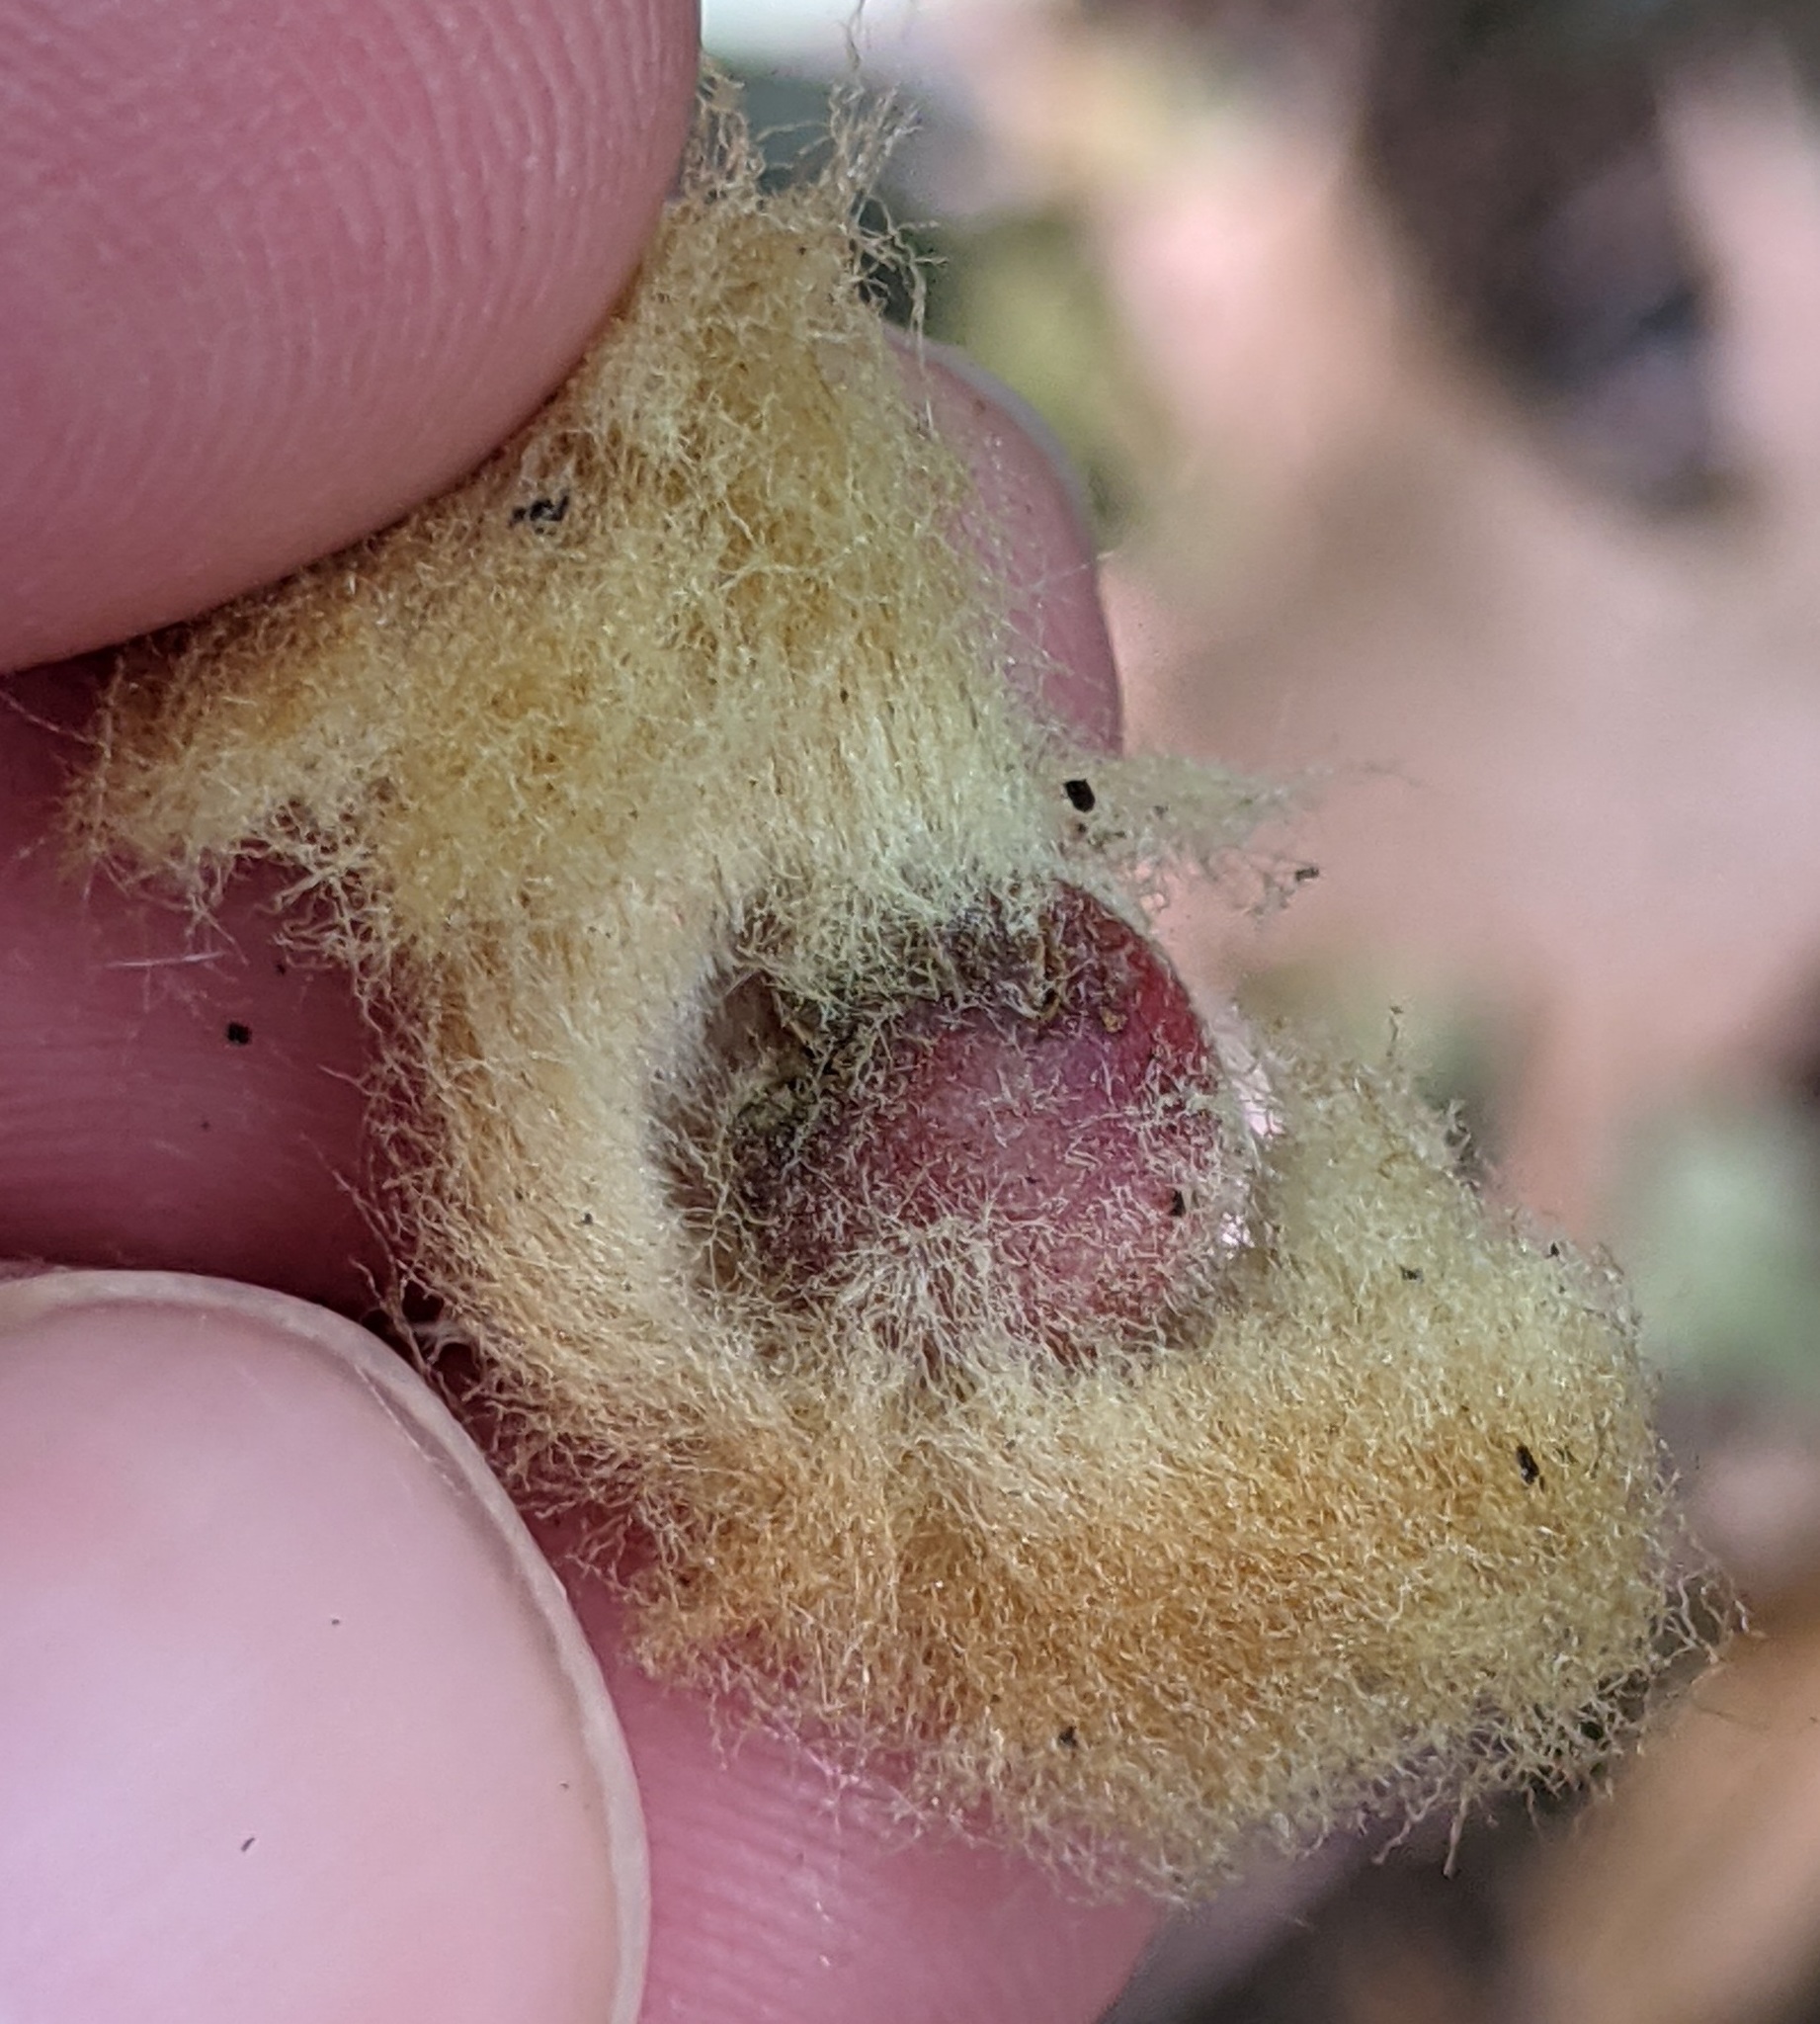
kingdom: Animalia
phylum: Arthropoda
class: Insecta
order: Hymenoptera
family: Cynipidae
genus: Callirhytis
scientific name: Callirhytis
